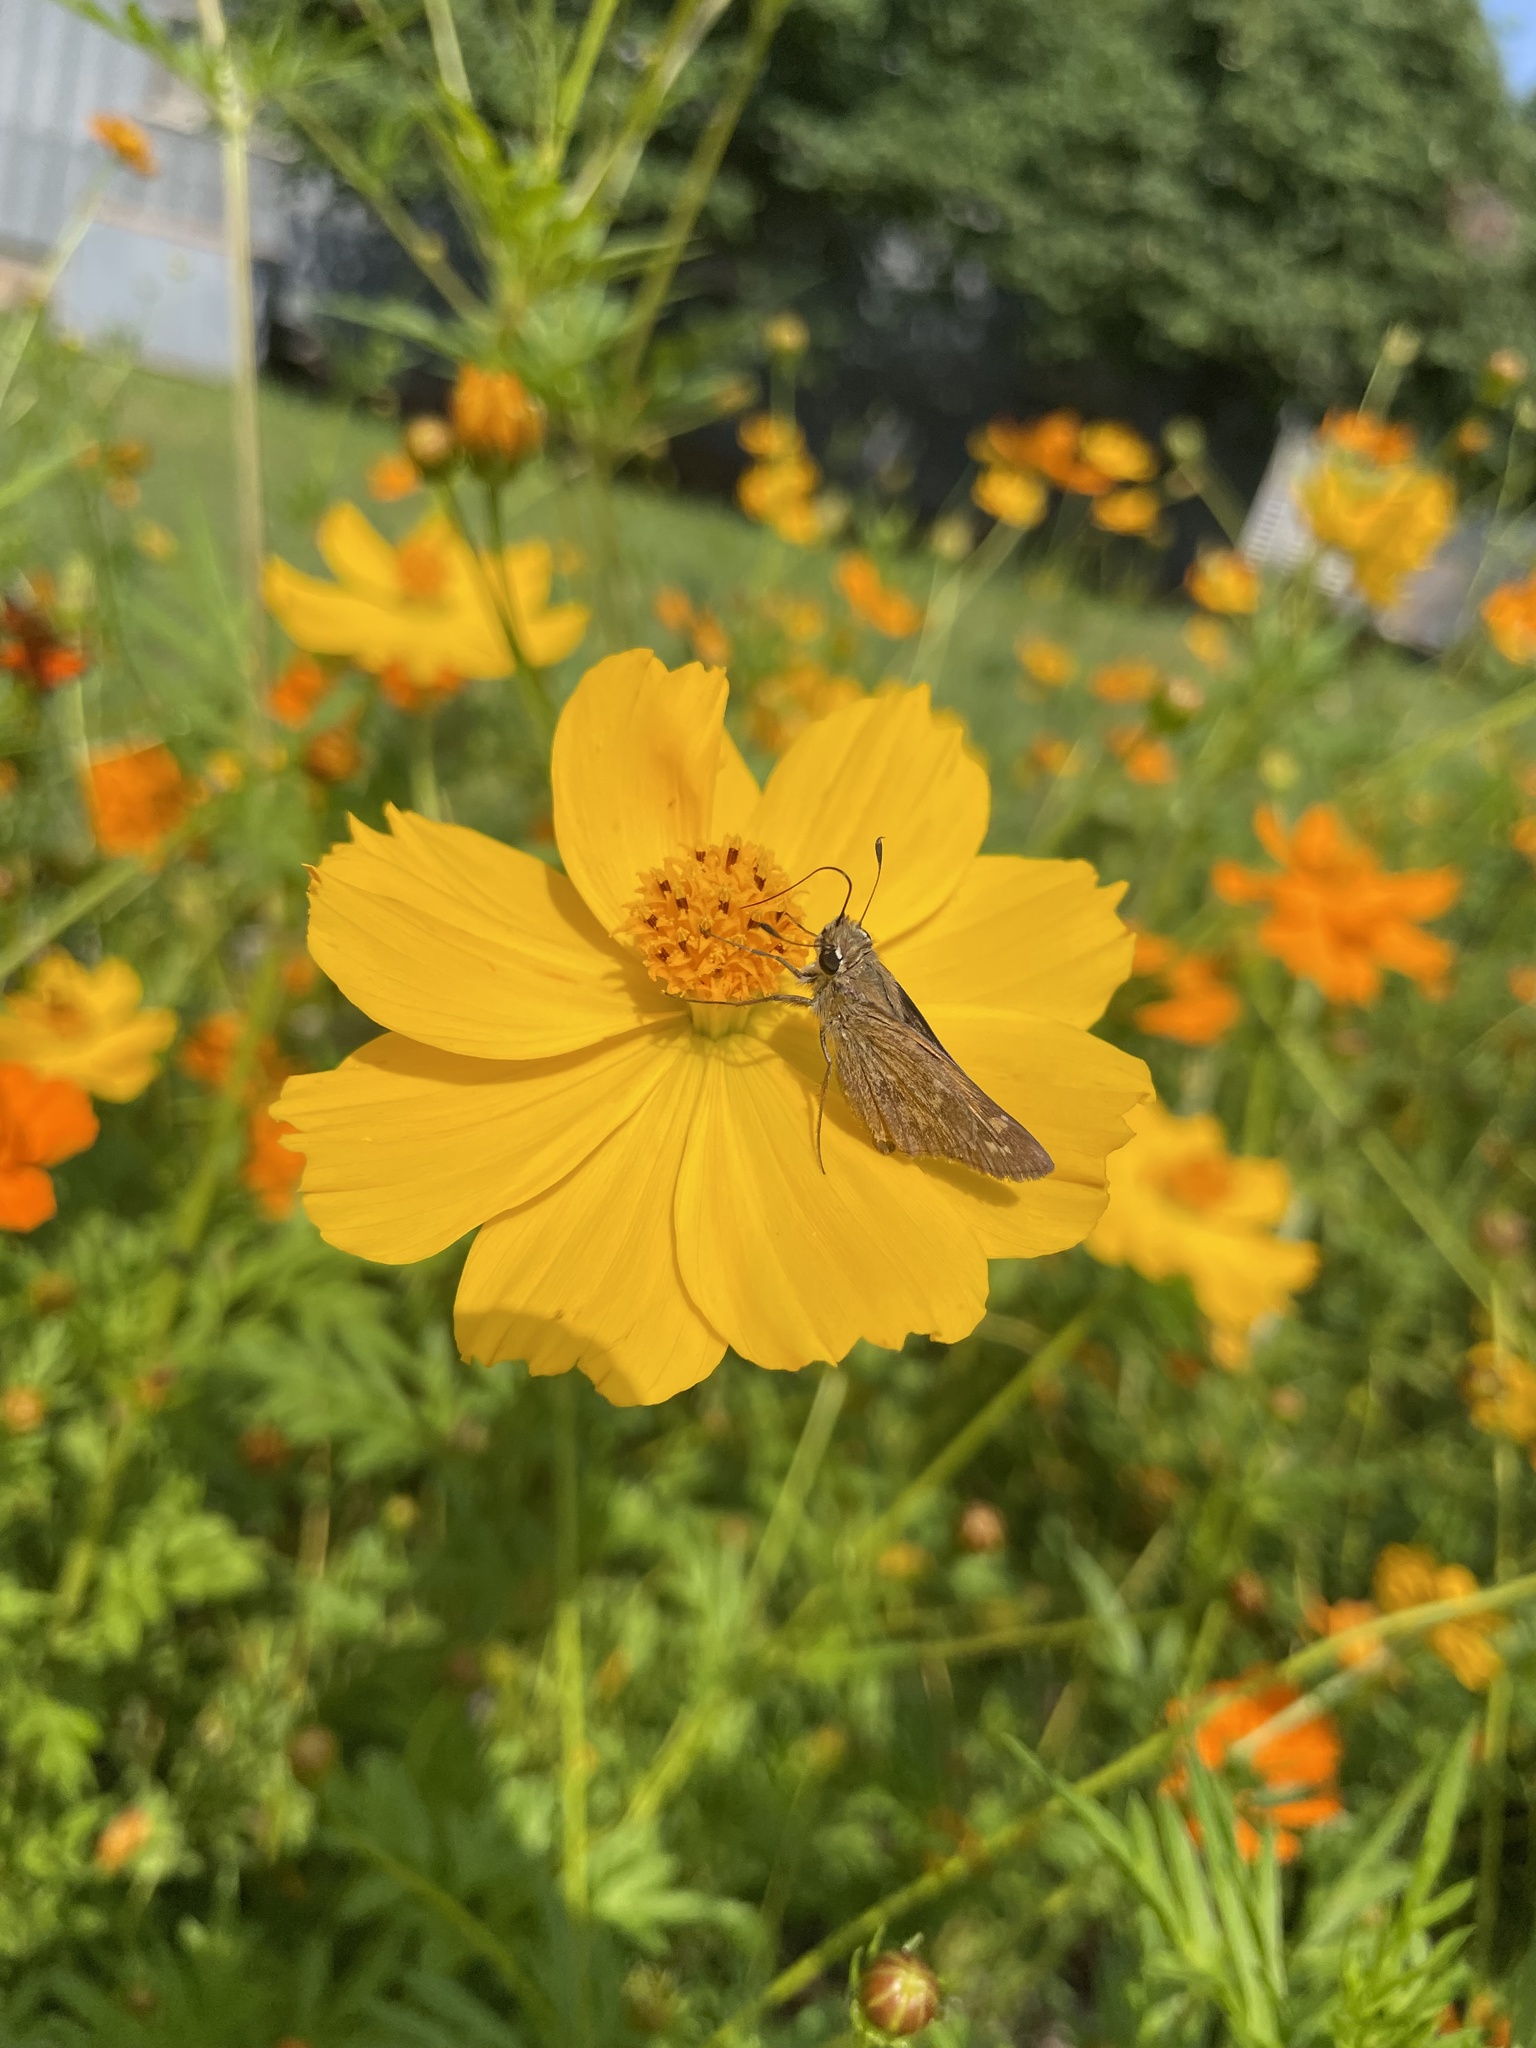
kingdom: Animalia
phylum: Arthropoda
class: Insecta
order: Lepidoptera
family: Hesperiidae
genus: Atalopedes
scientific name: Atalopedes
